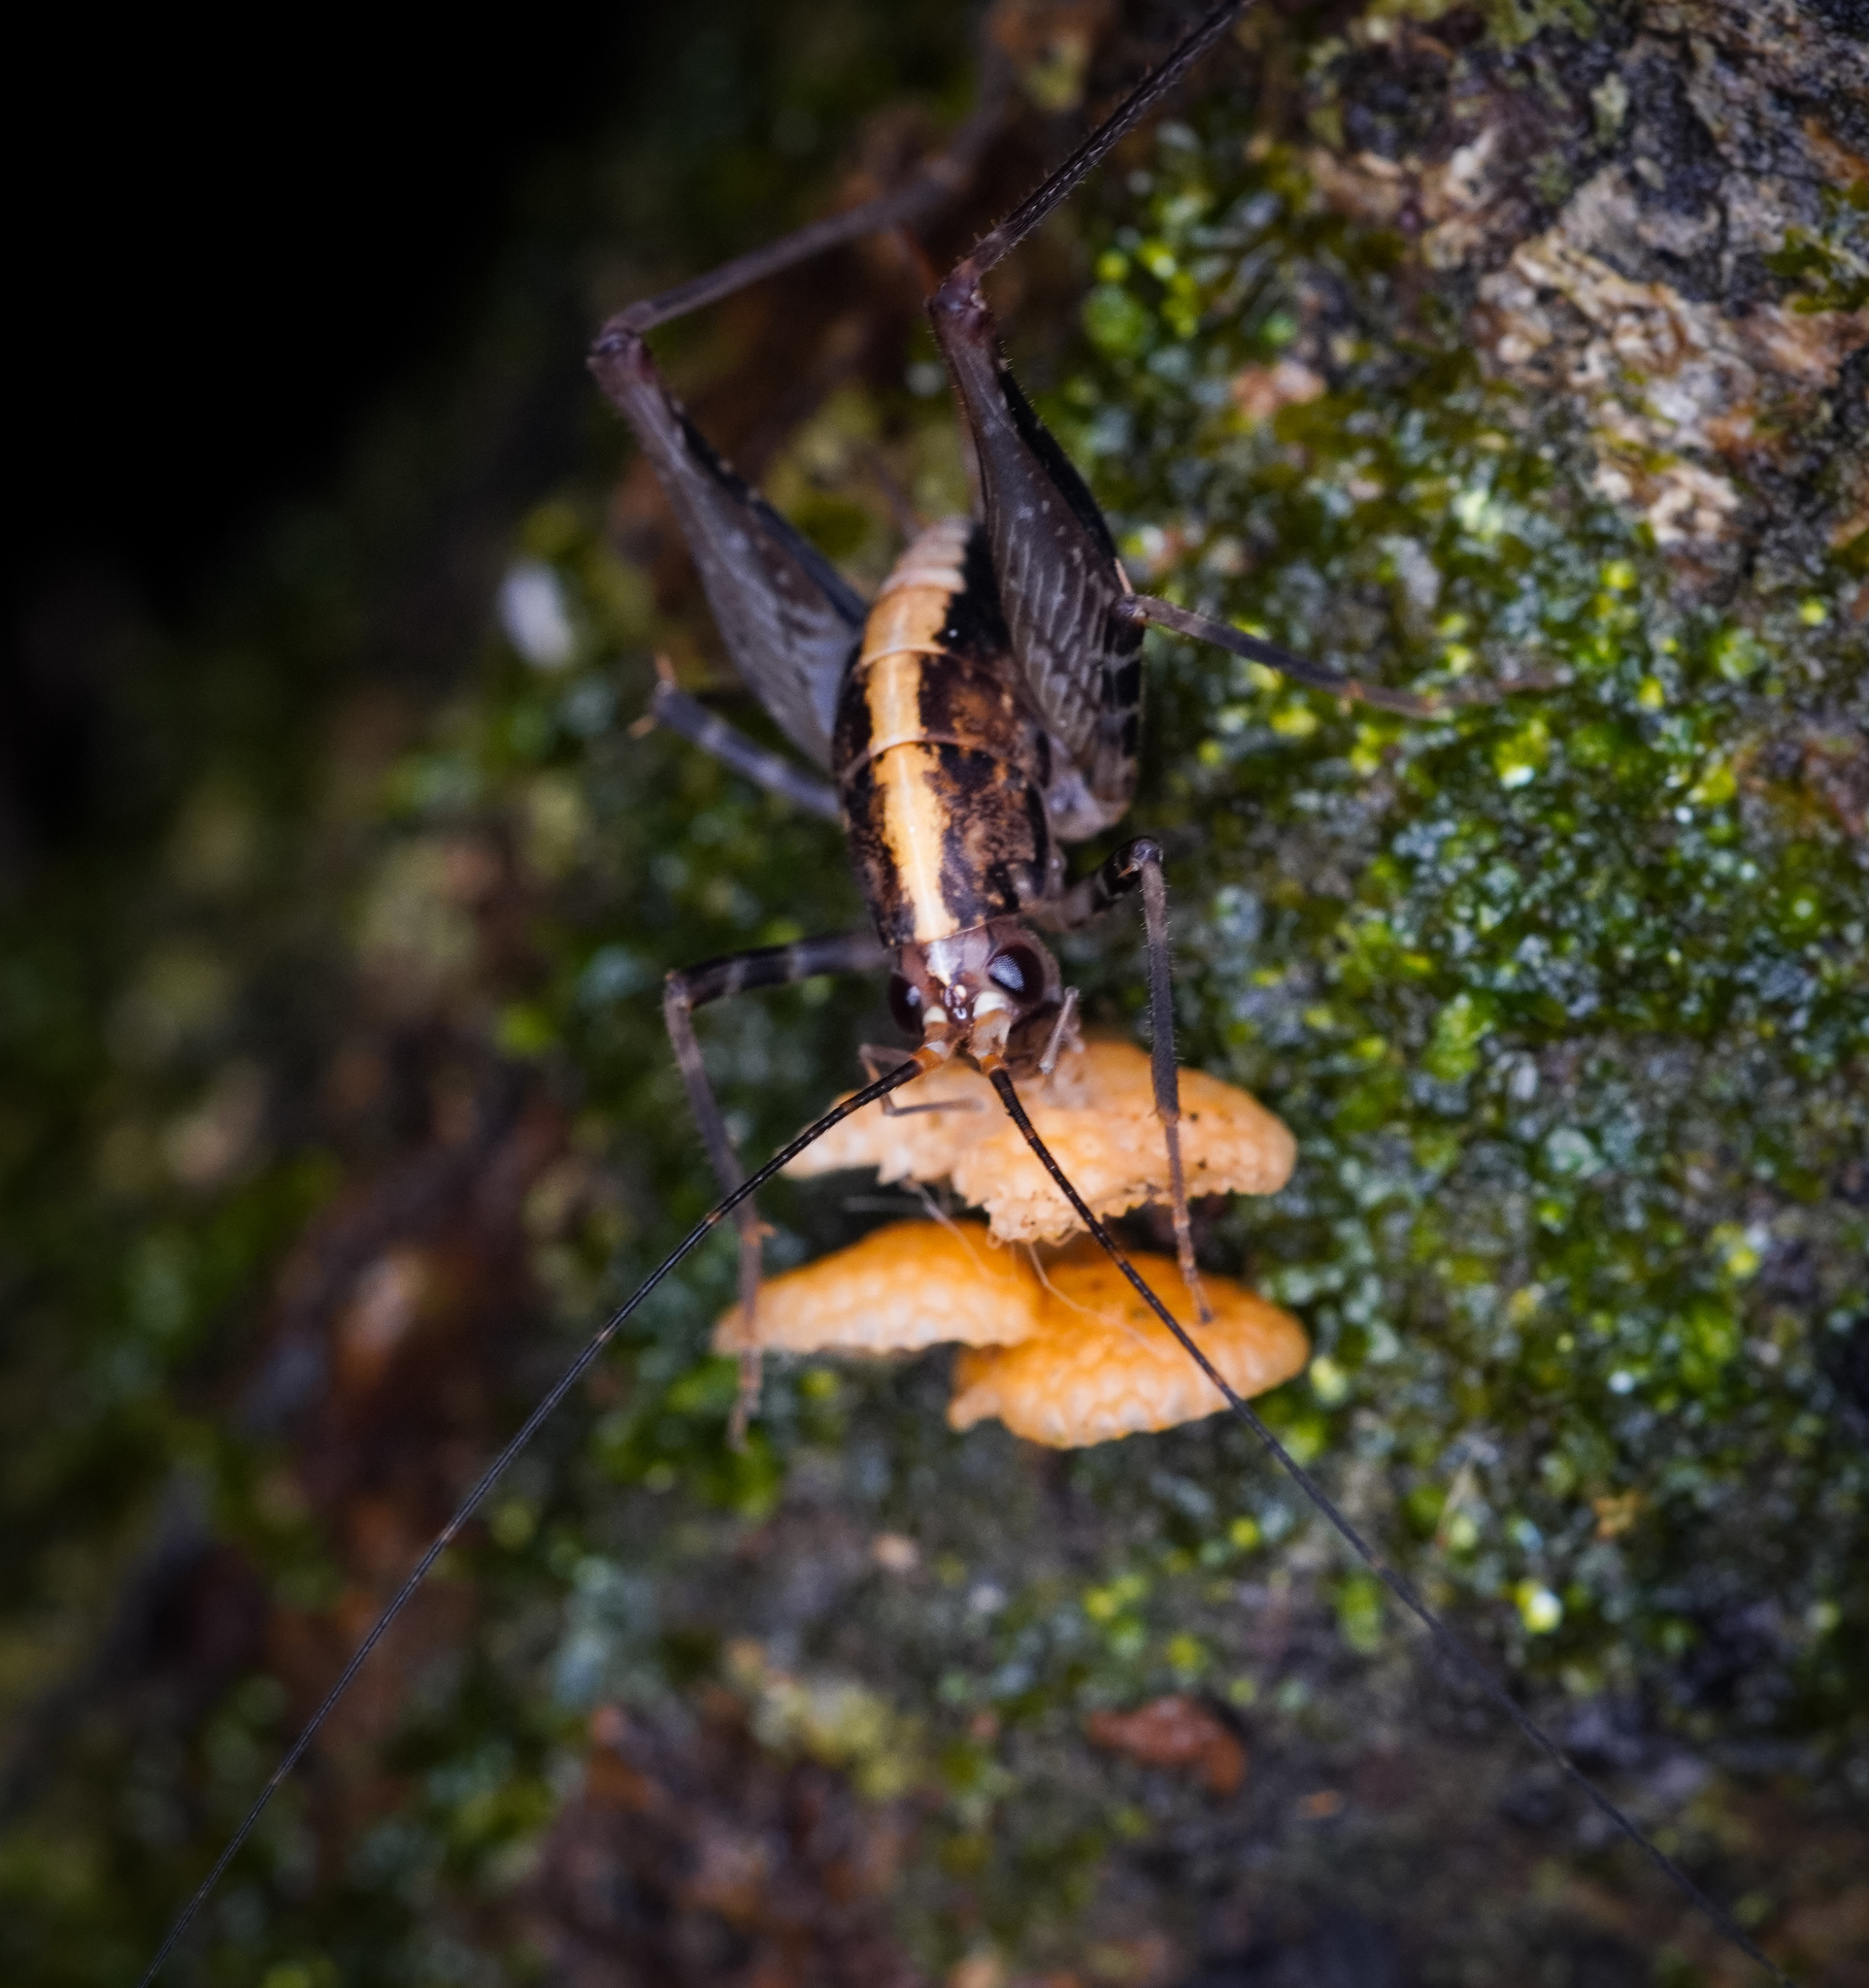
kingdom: Animalia
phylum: Arthropoda
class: Insecta
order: Orthoptera
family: Rhaphidophoridae
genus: Pleioplectron
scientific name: Pleioplectron hudsoni
